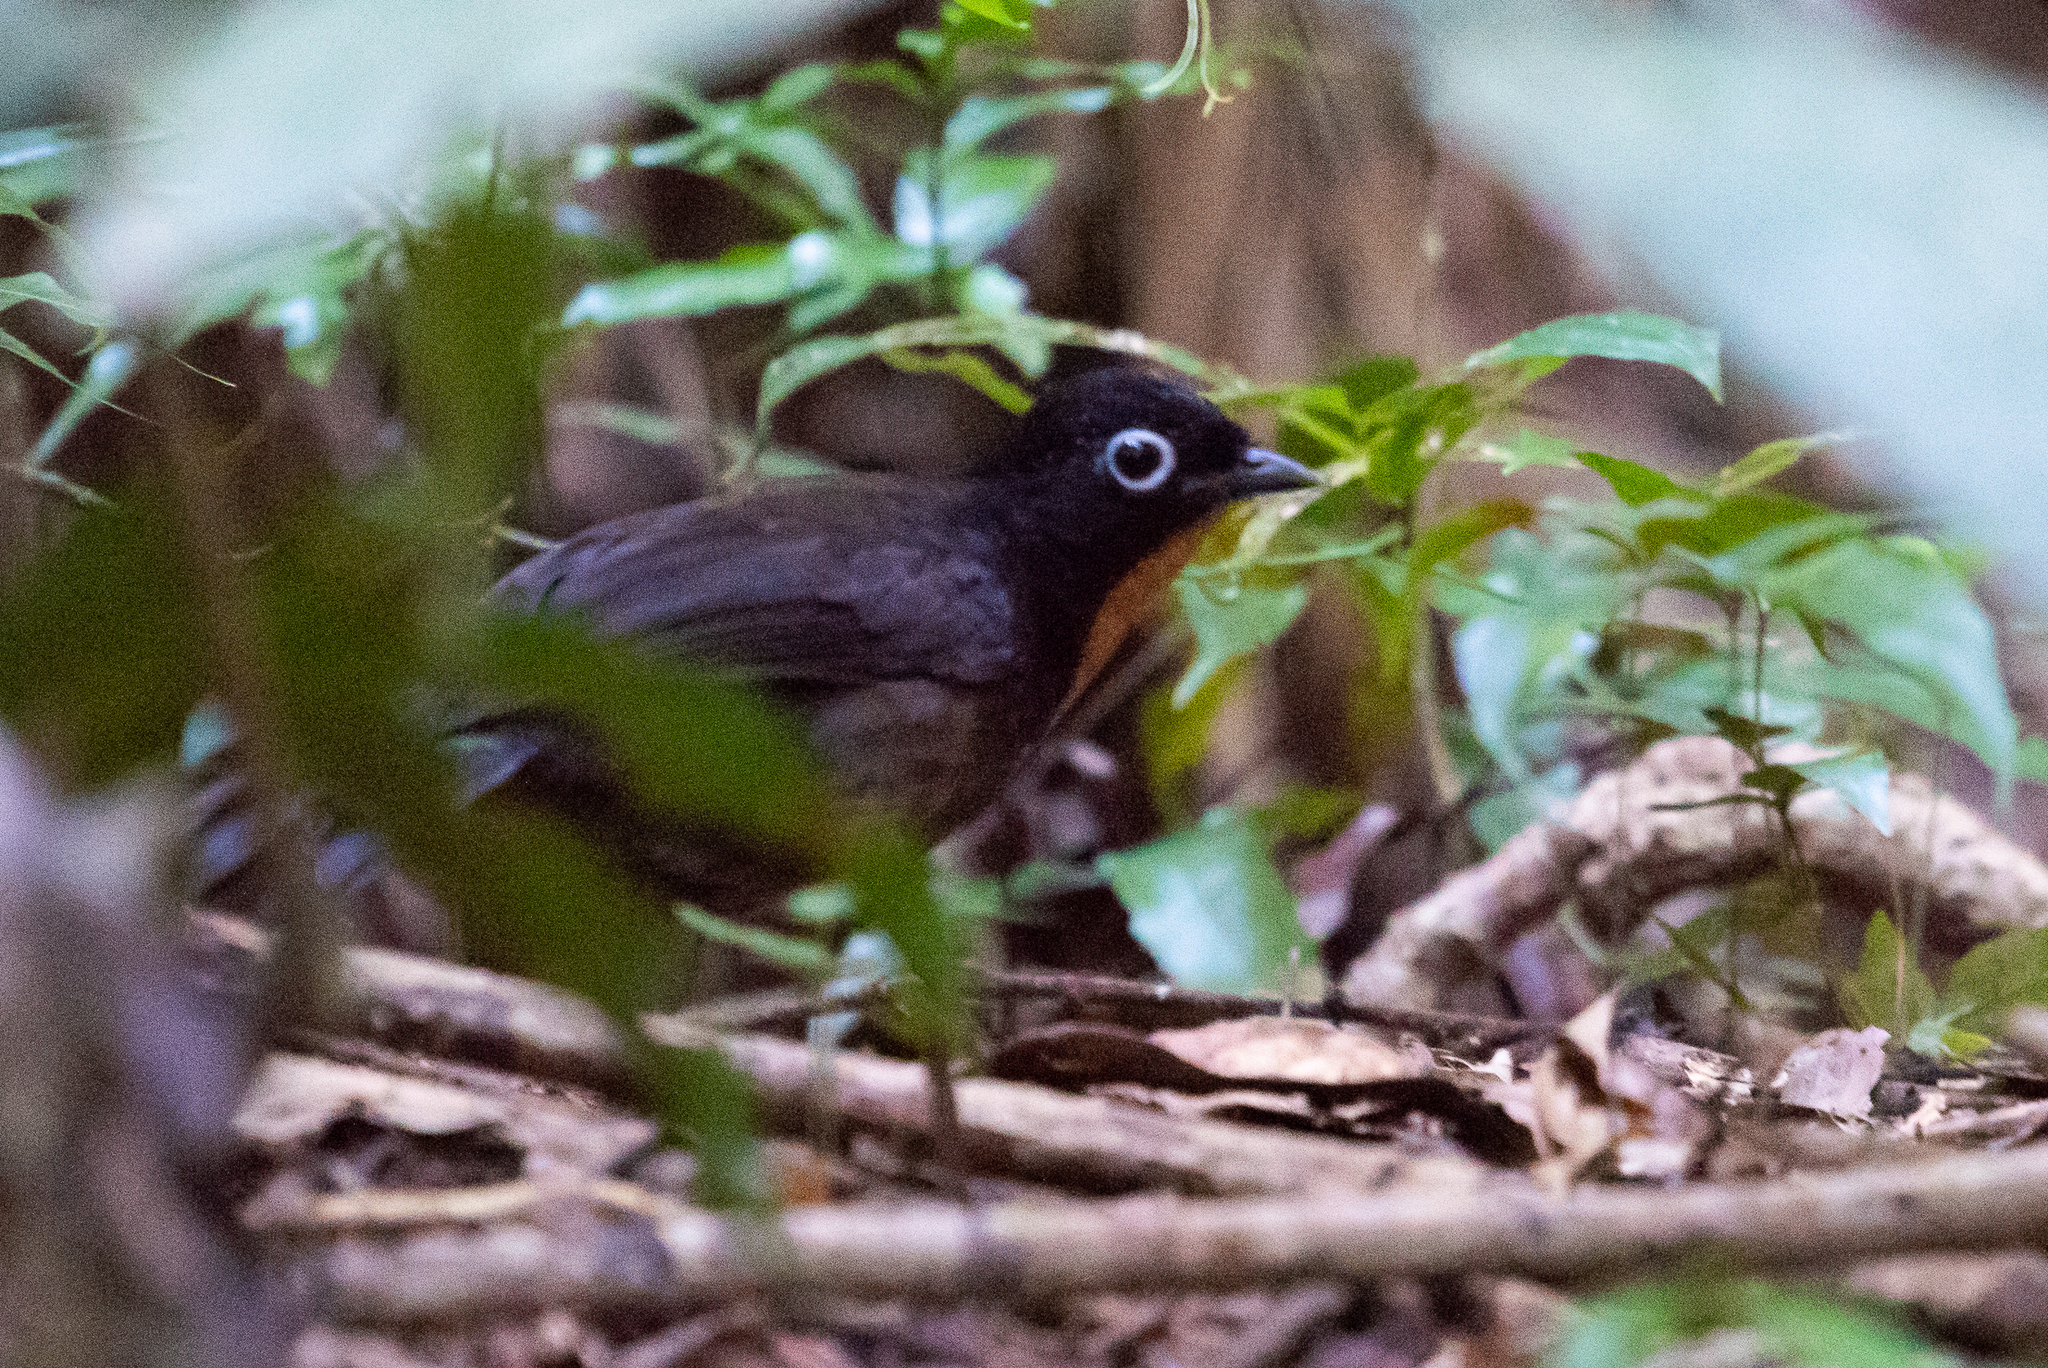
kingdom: Animalia
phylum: Chordata
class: Aves
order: Passeriformes
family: Orthonychidae
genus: Orthonyx
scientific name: Orthonyx spaldingii
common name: Chowchilla
